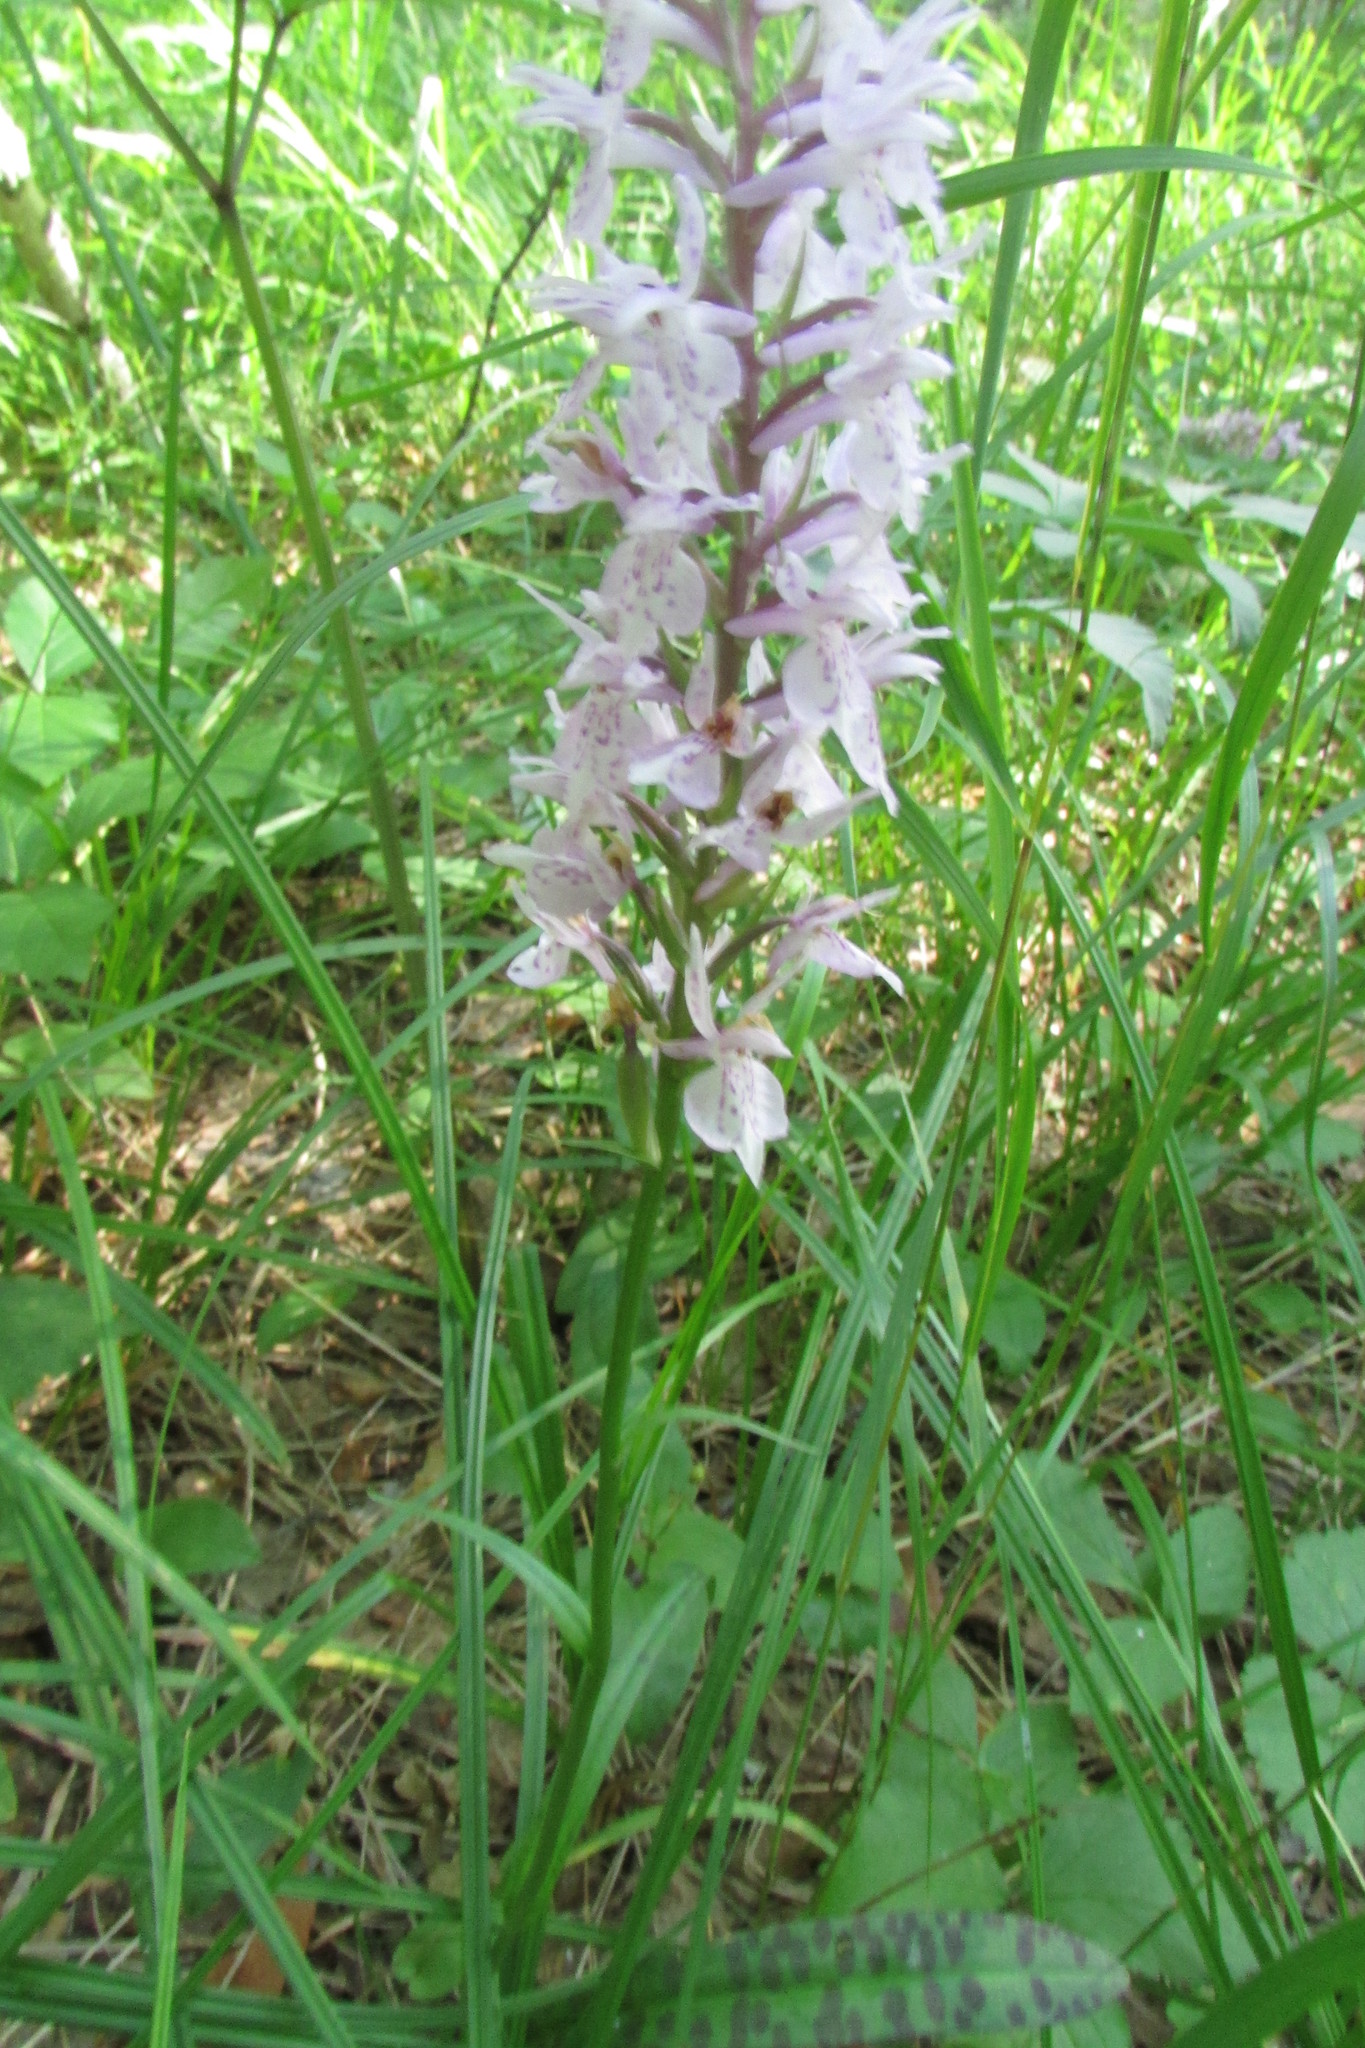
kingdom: Plantae
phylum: Tracheophyta
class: Liliopsida
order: Asparagales
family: Orchidaceae
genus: Dactylorhiza
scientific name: Dactylorhiza maculata
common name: Heath spotted-orchid
